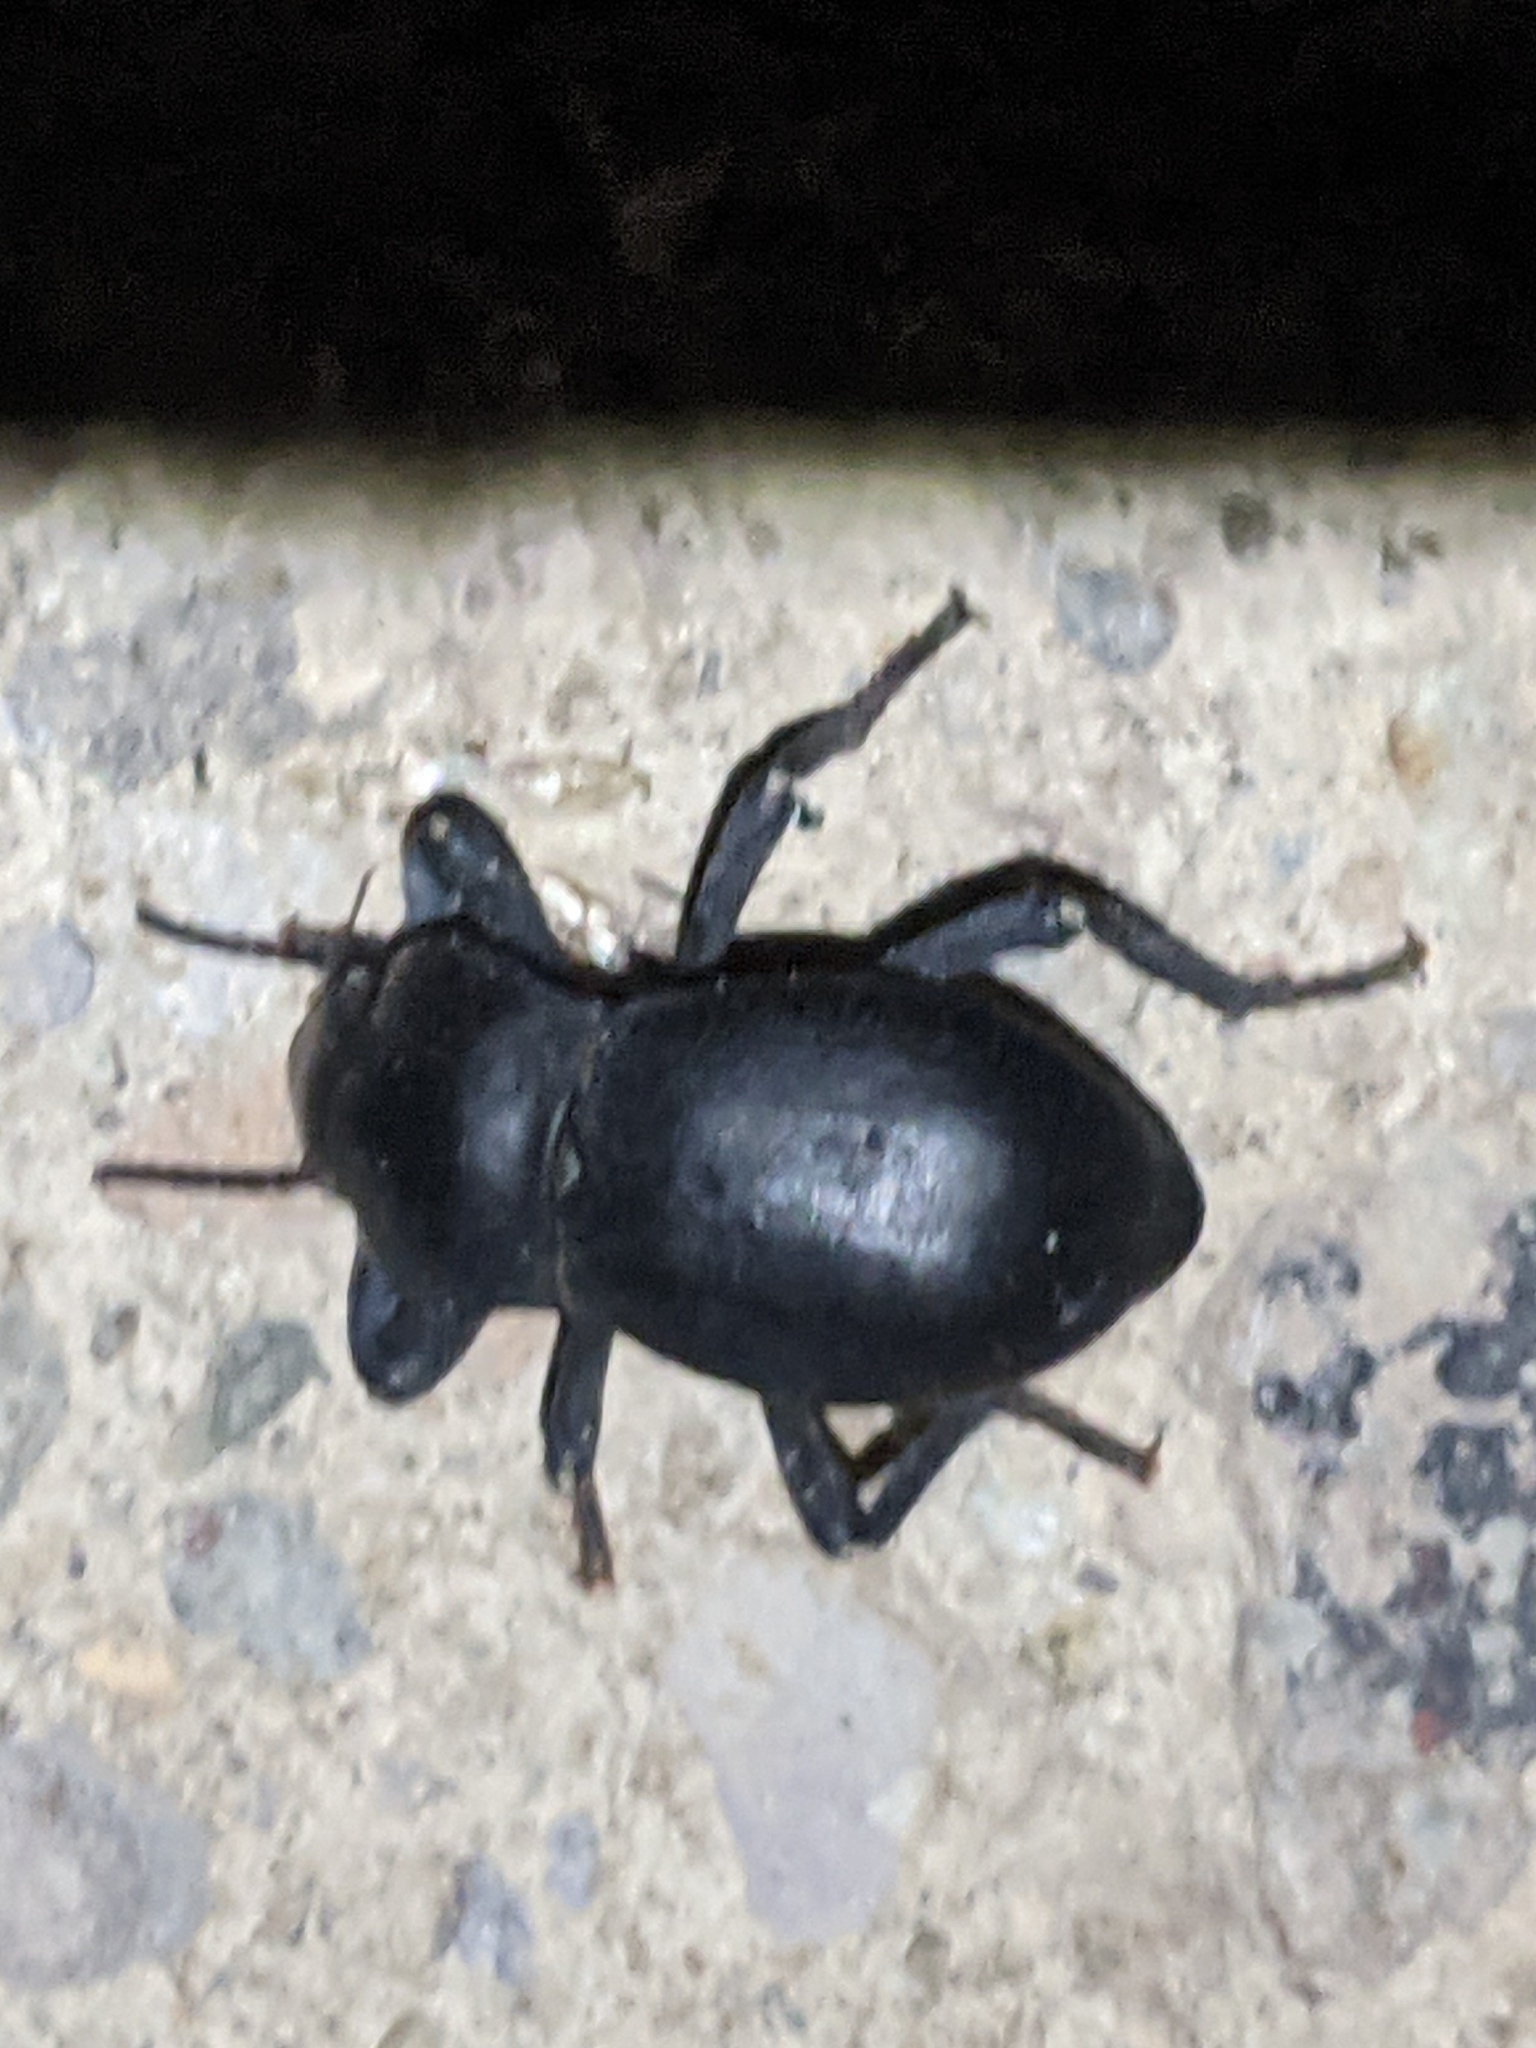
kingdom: Animalia
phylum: Arthropoda
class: Insecta
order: Coleoptera
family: Tenebrionidae
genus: Asbolus
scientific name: Asbolus mexicanus
